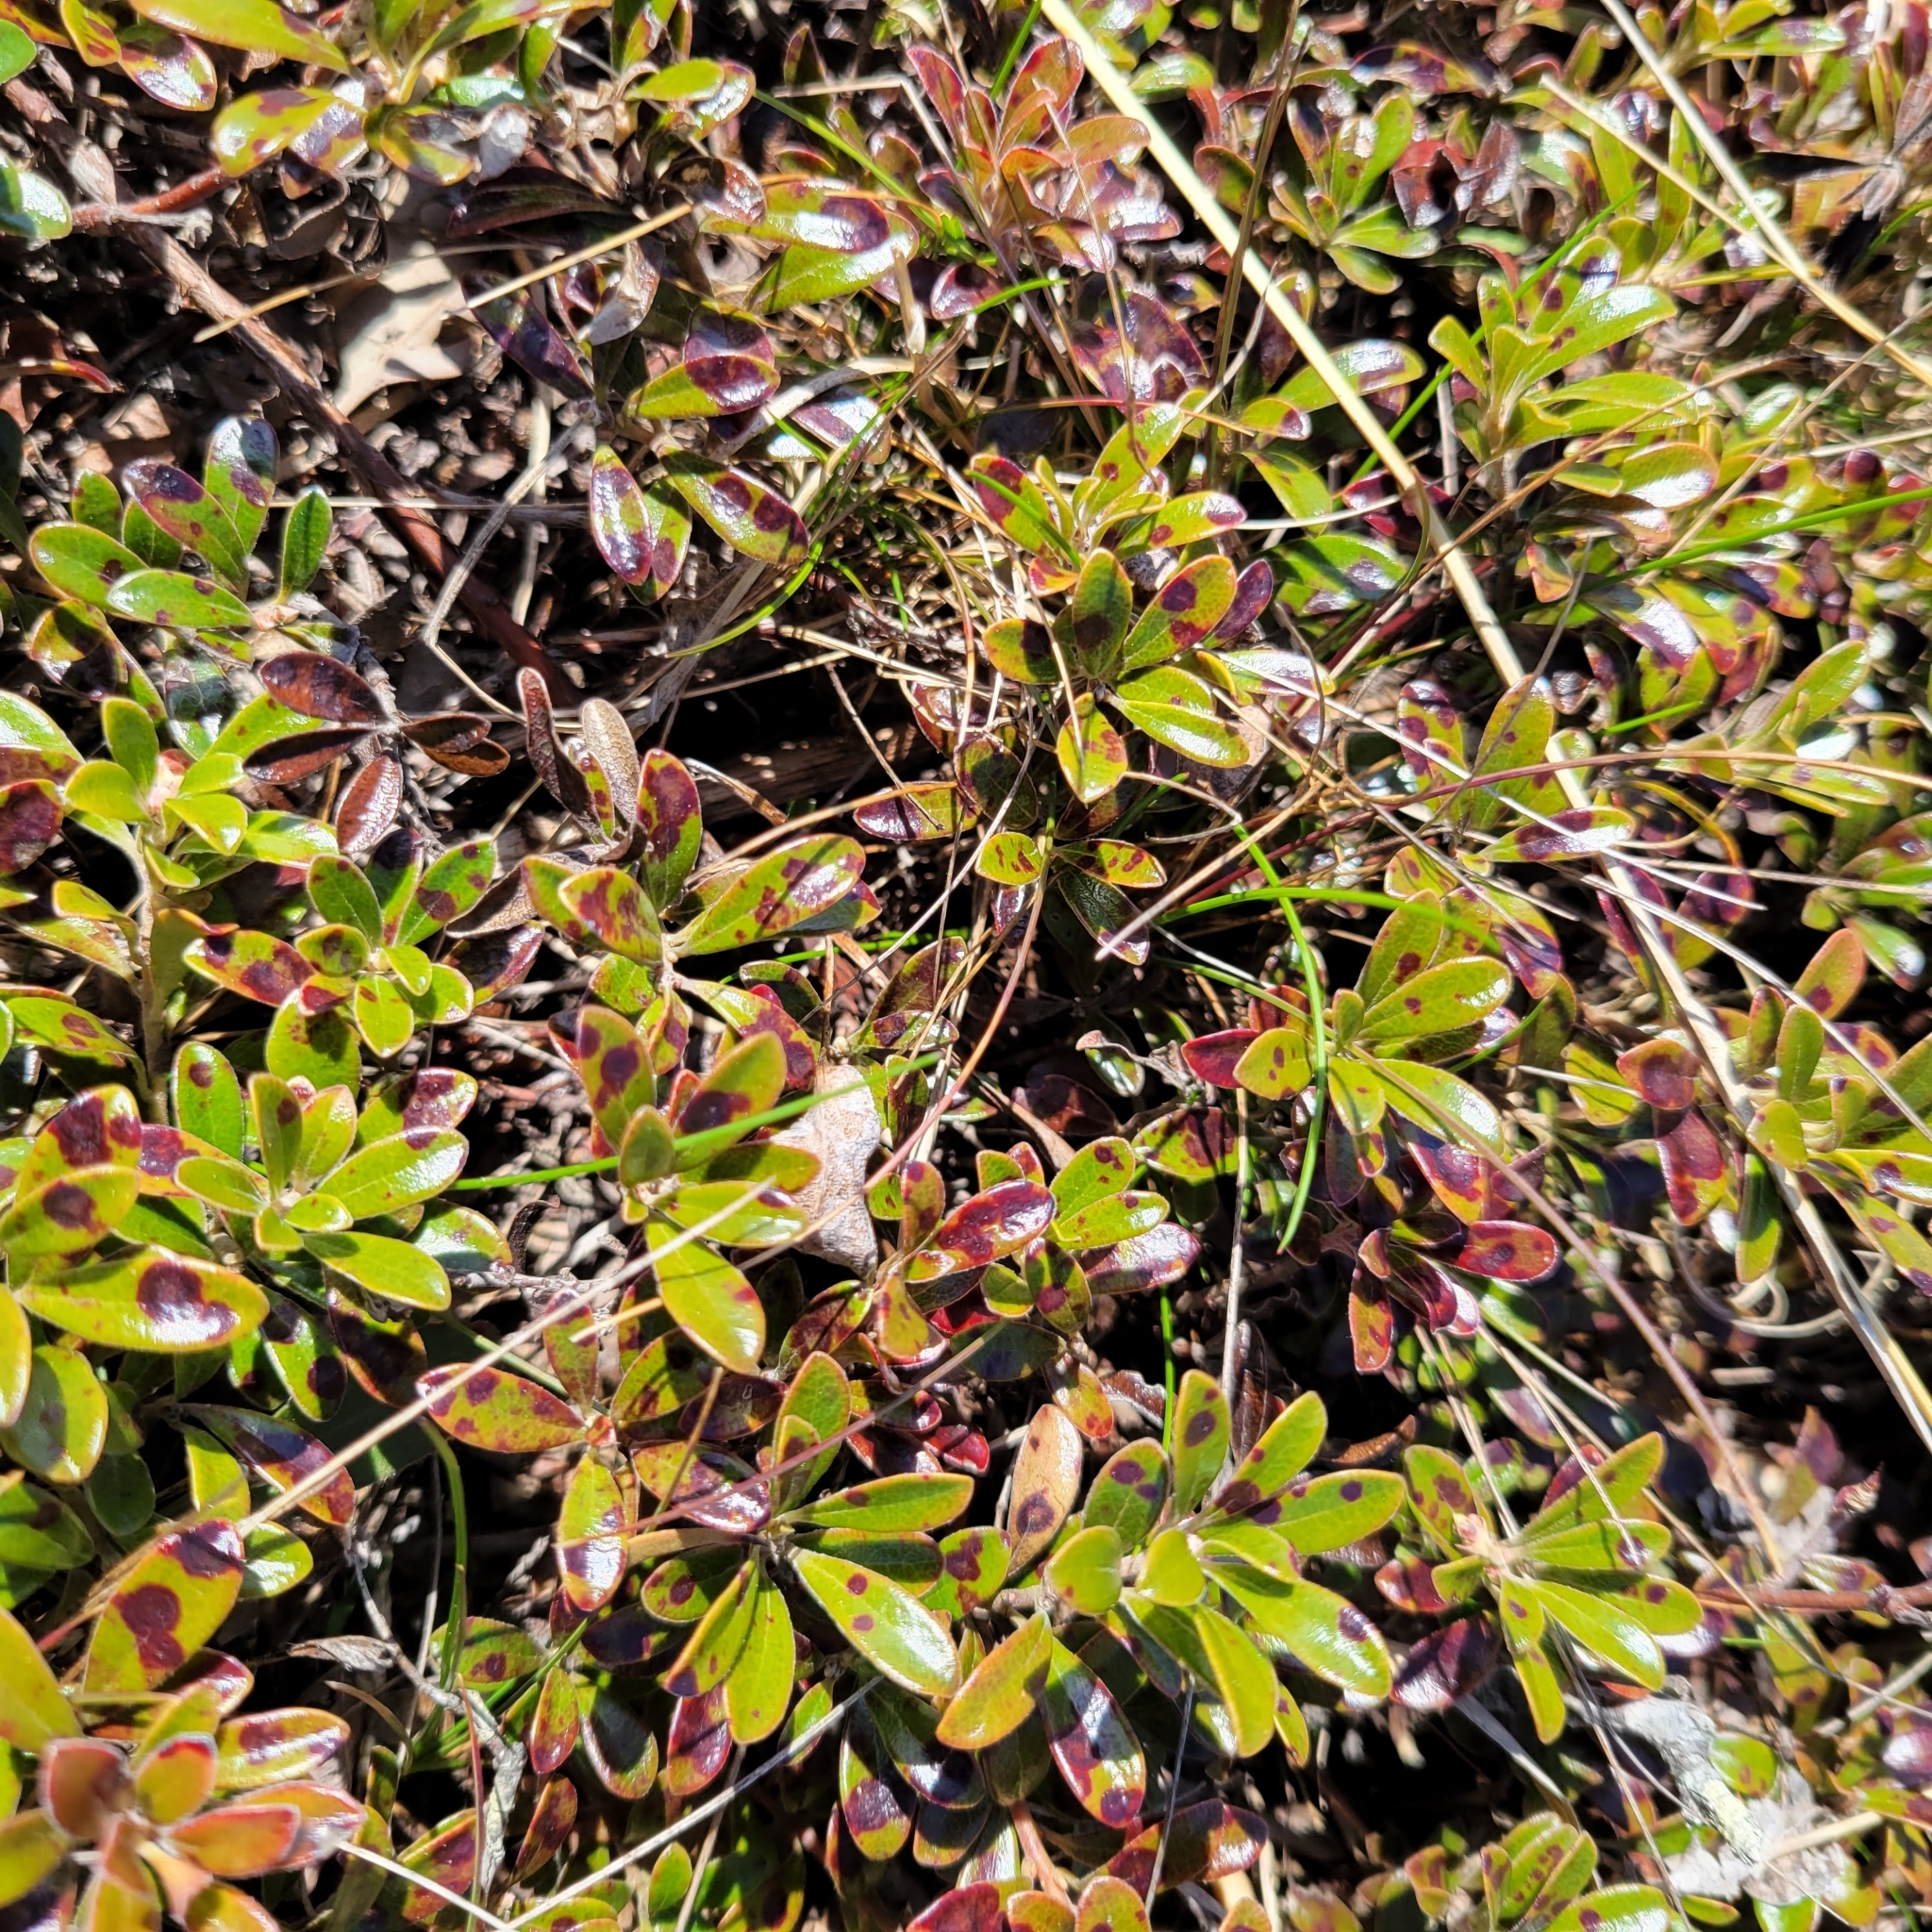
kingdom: Plantae
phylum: Tracheophyta
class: Magnoliopsida
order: Ericales
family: Ericaceae
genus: Arctostaphylos
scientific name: Arctostaphylos uva-ursi
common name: Bearberry
